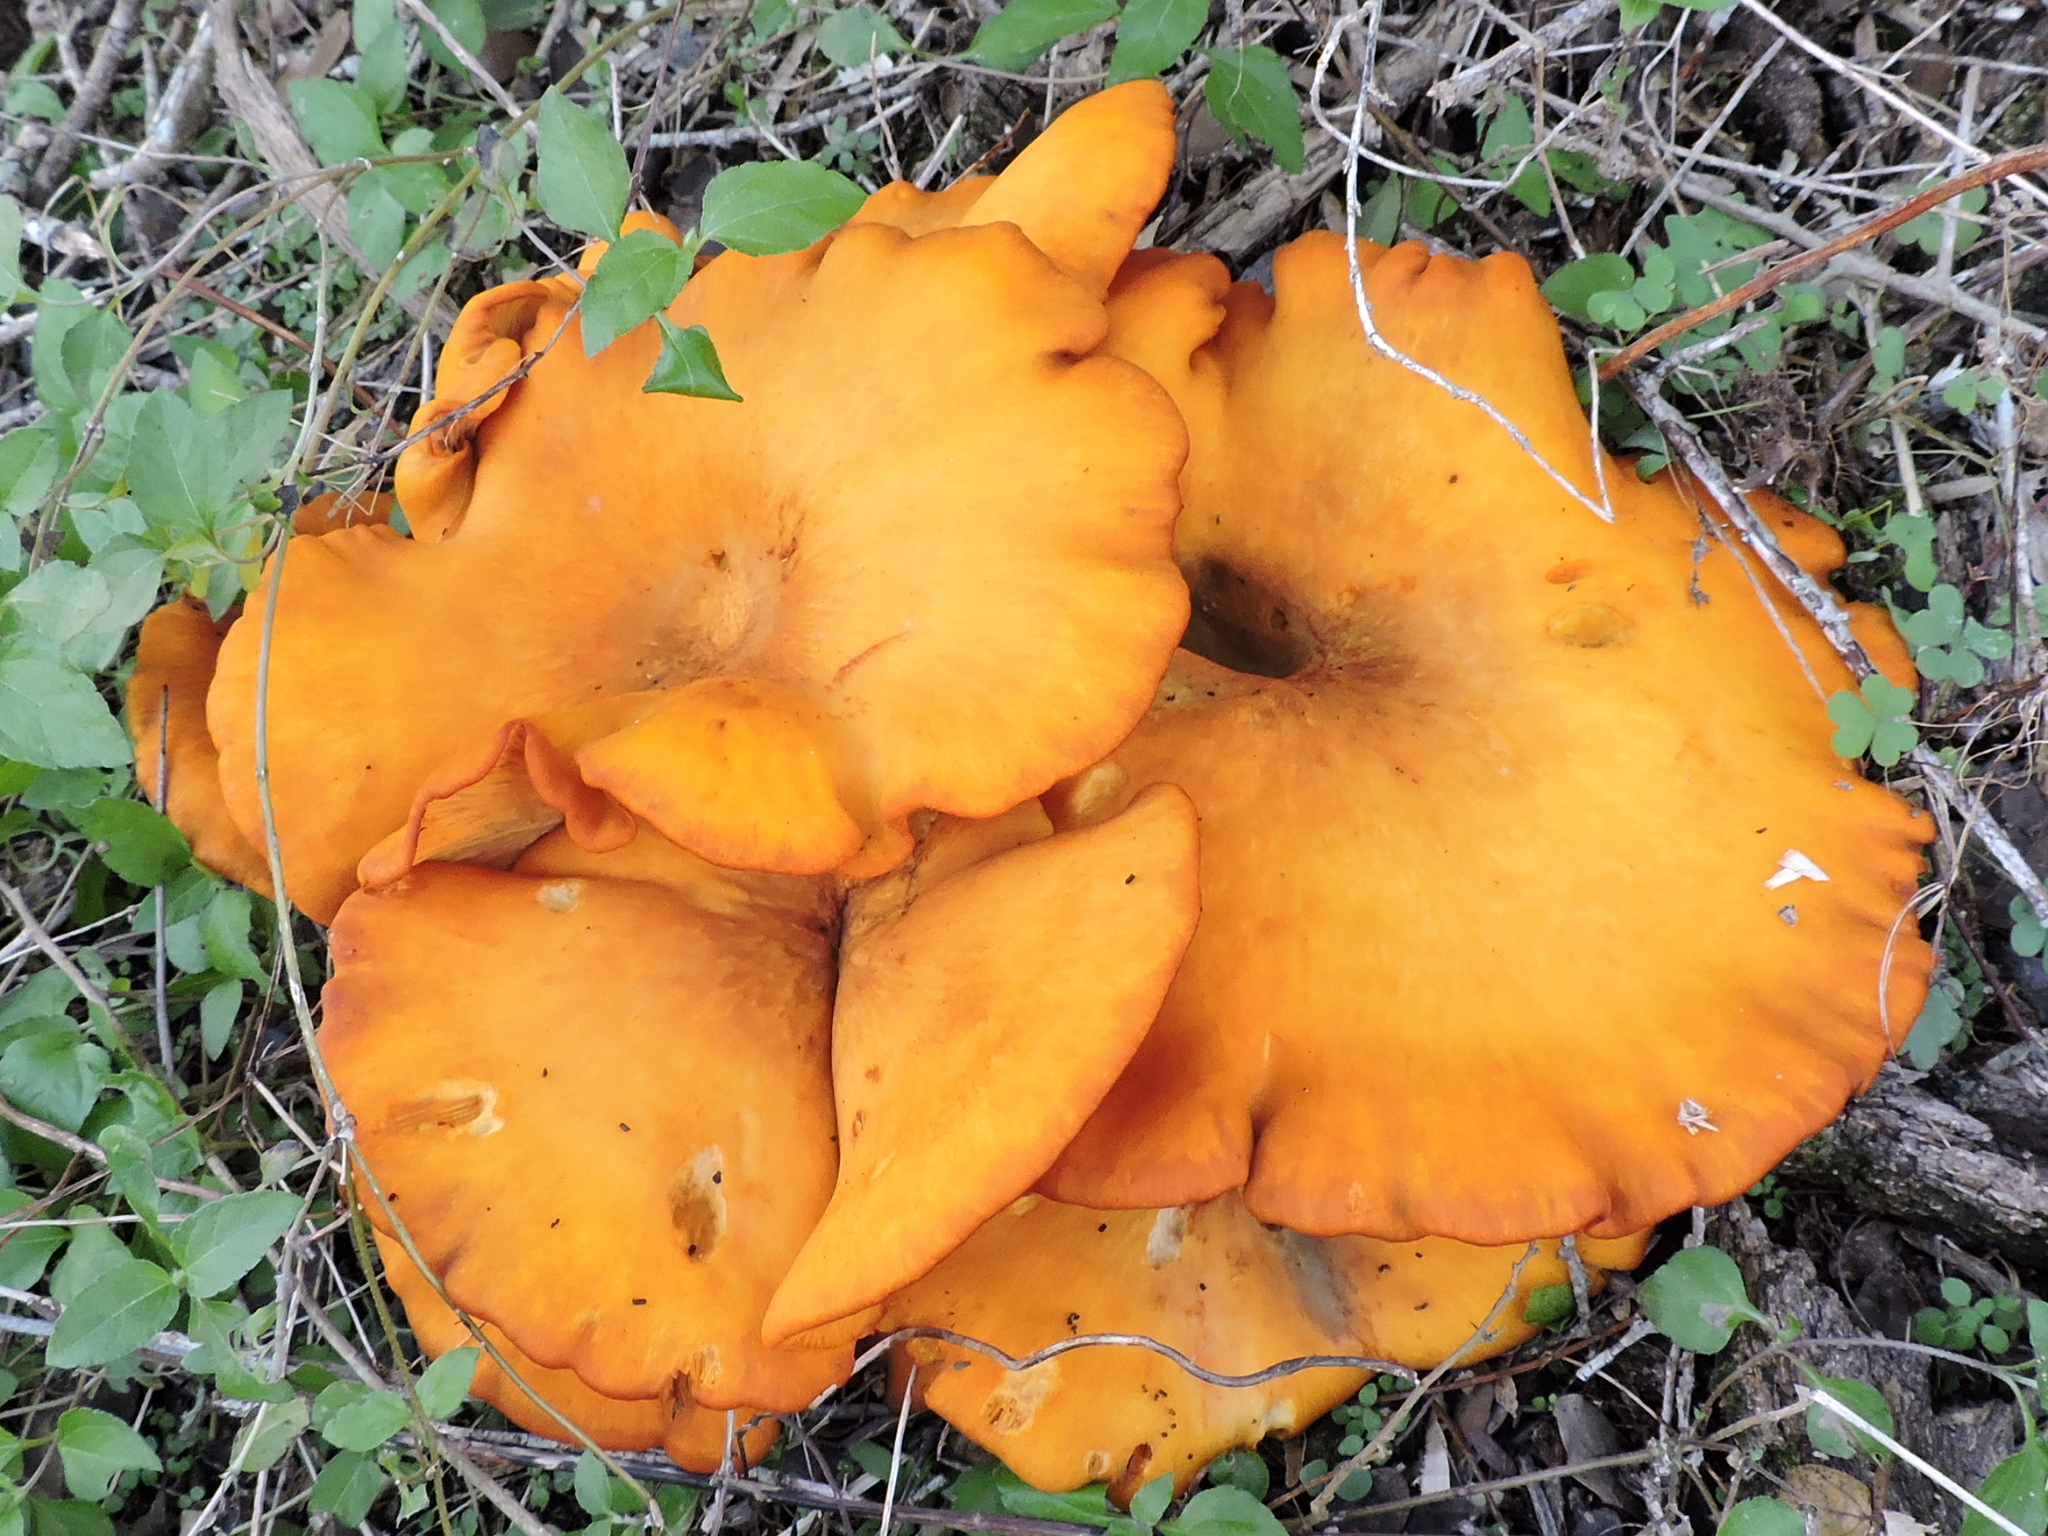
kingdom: Fungi
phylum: Basidiomycota
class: Agaricomycetes
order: Agaricales
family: Omphalotaceae
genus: Omphalotus
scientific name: Omphalotus illudens
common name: Jack o lantern
